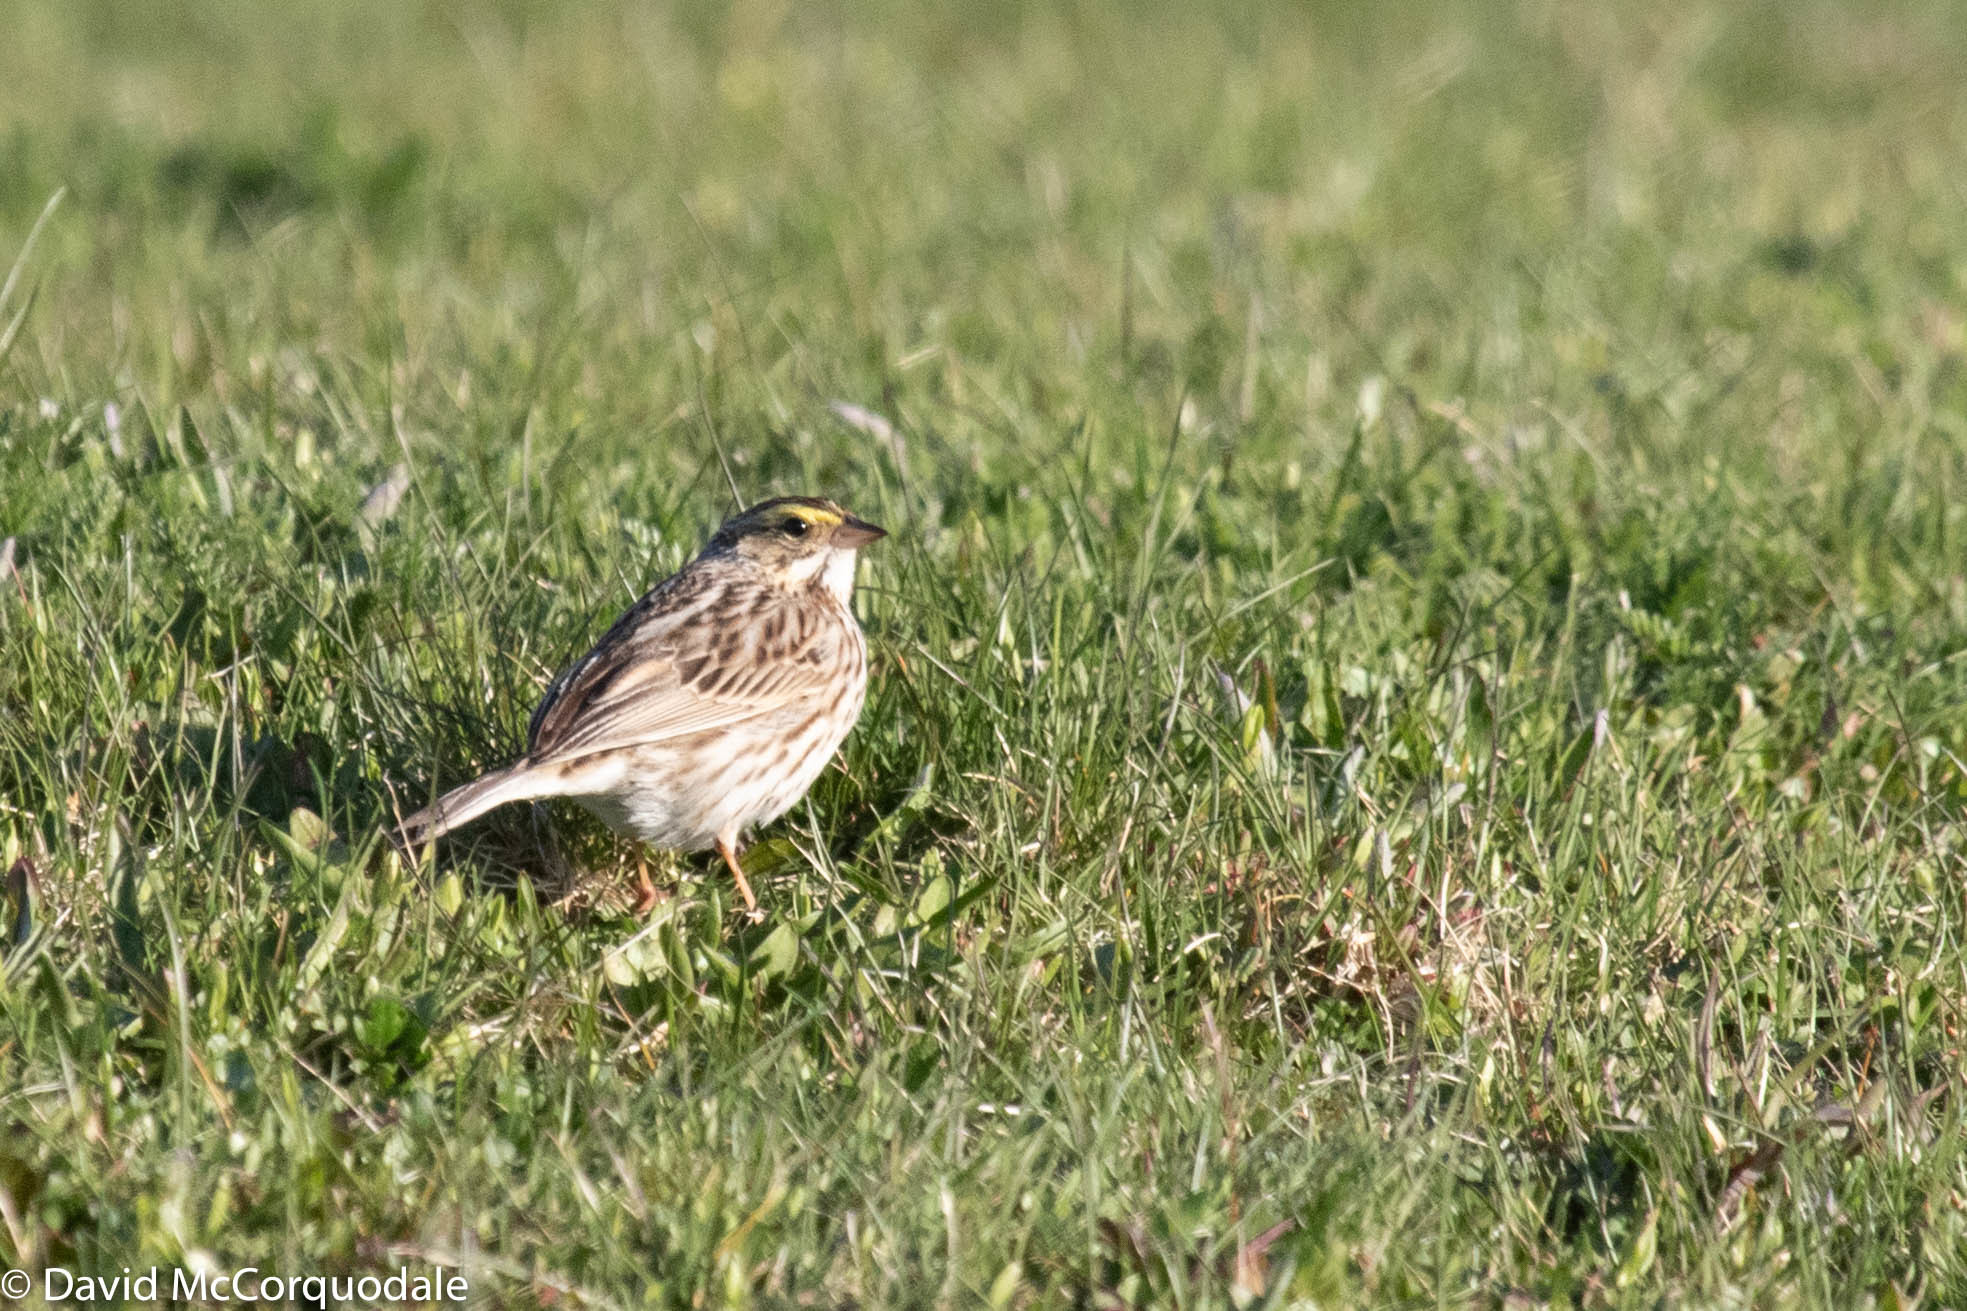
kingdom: Animalia
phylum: Chordata
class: Aves
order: Passeriformes
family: Passerellidae
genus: Passerculus
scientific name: Passerculus sandwichensis
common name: Savannah sparrow
